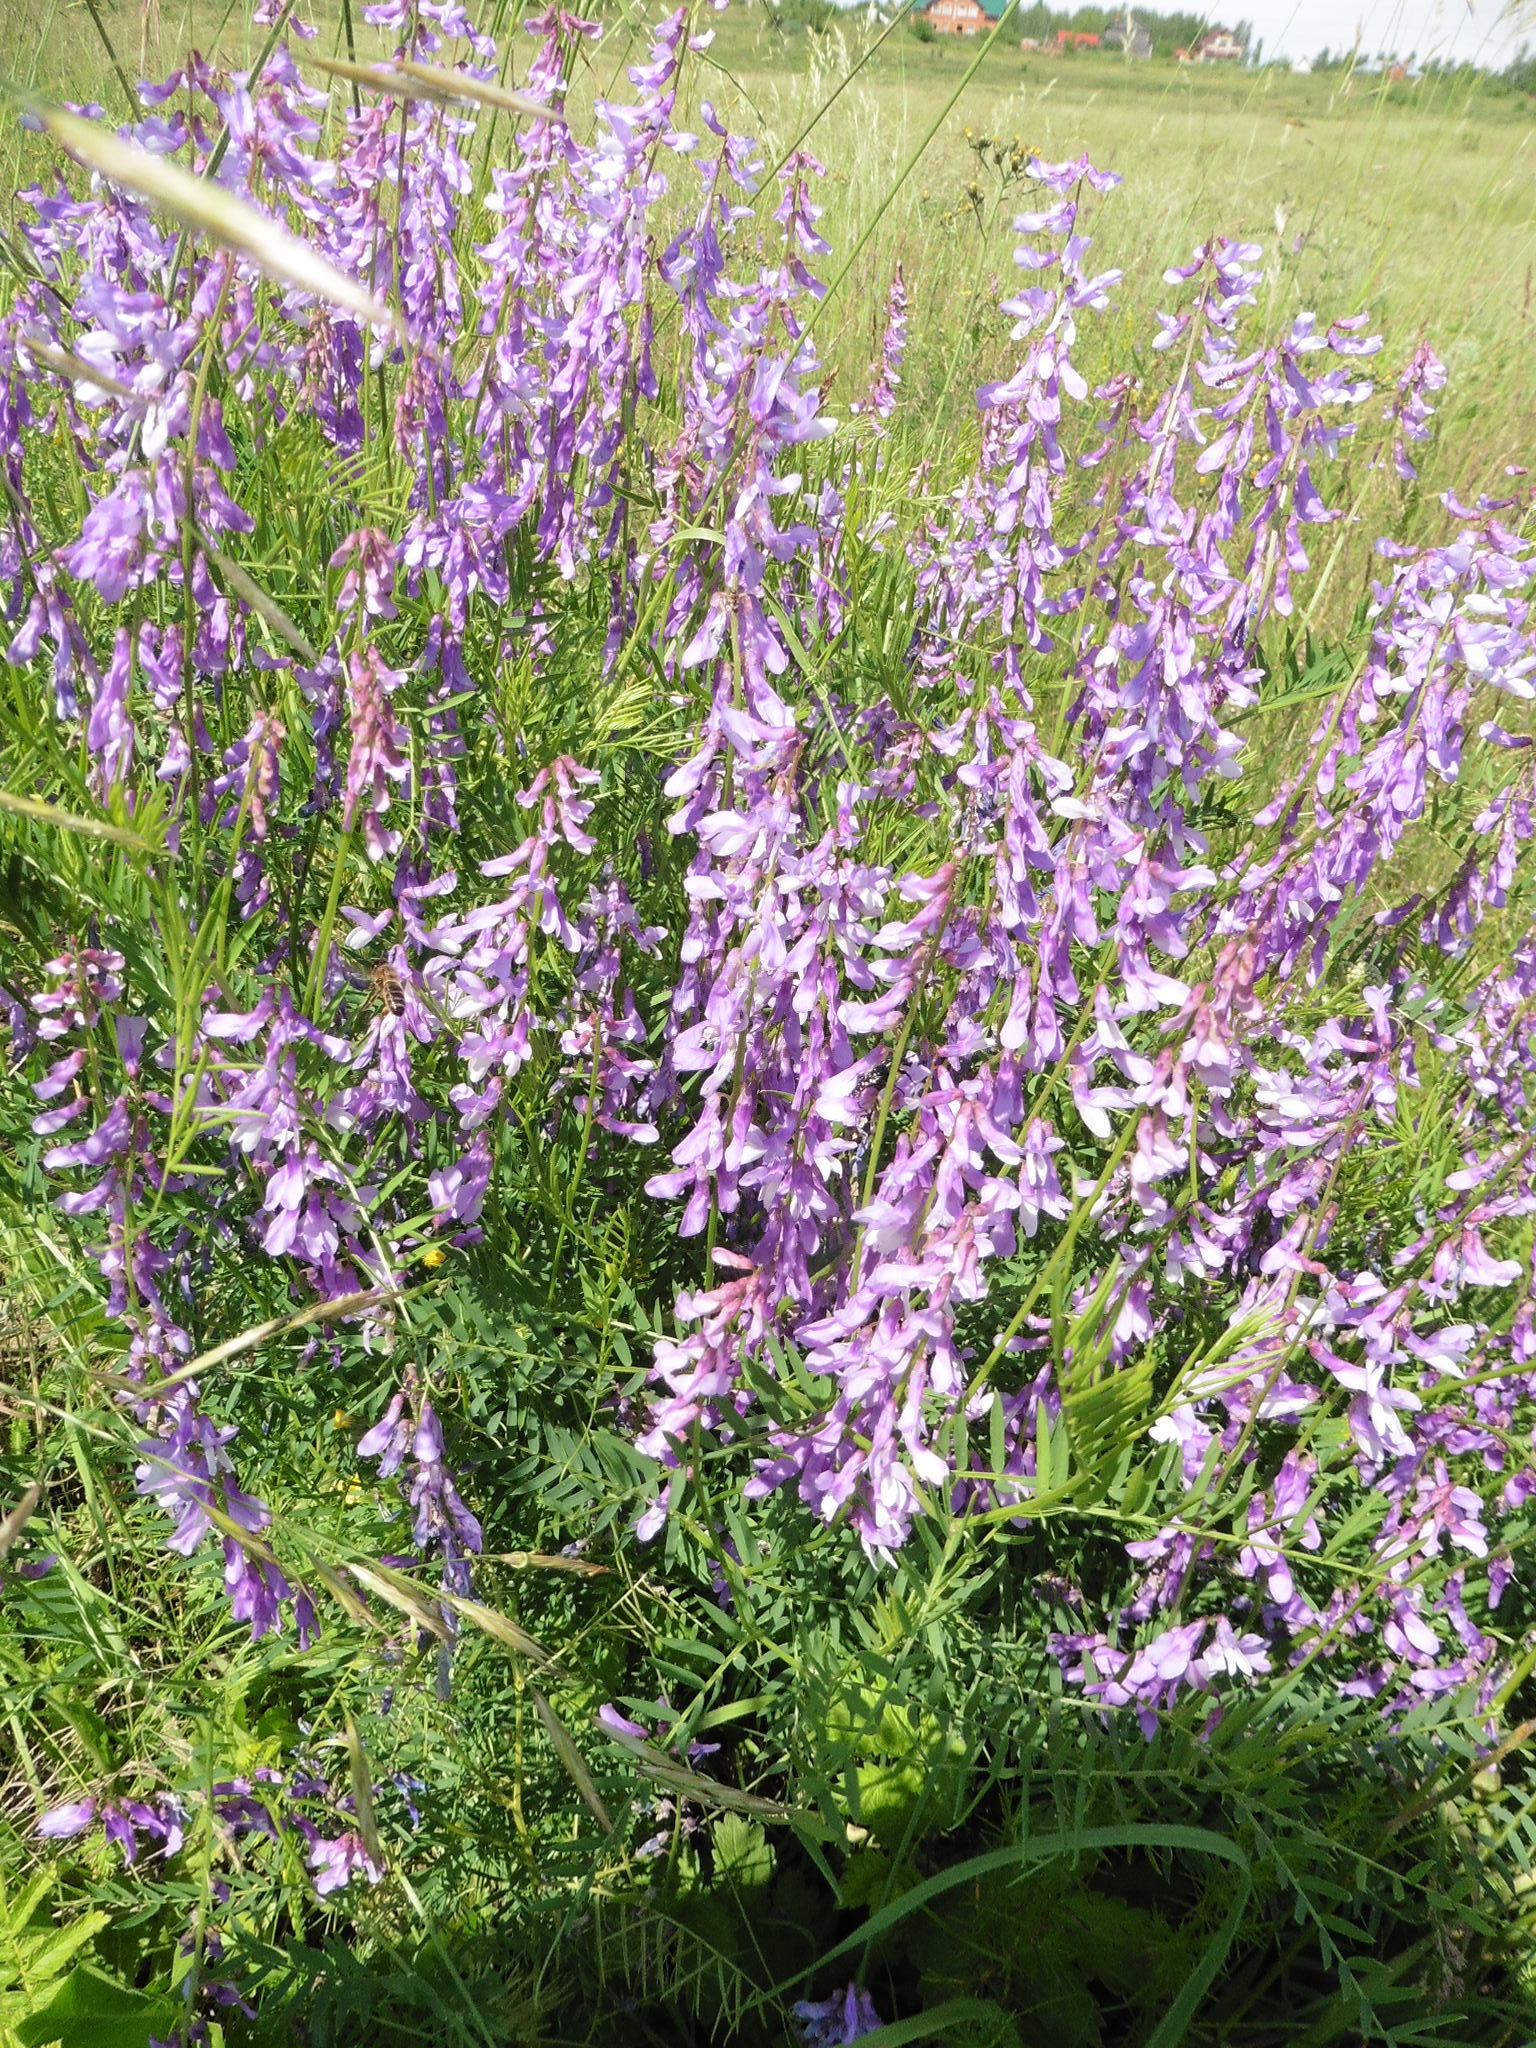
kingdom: Plantae
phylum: Tracheophyta
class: Magnoliopsida
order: Fabales
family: Fabaceae
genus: Vicia
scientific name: Vicia tenuifolia
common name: Fine-leaved vetch
